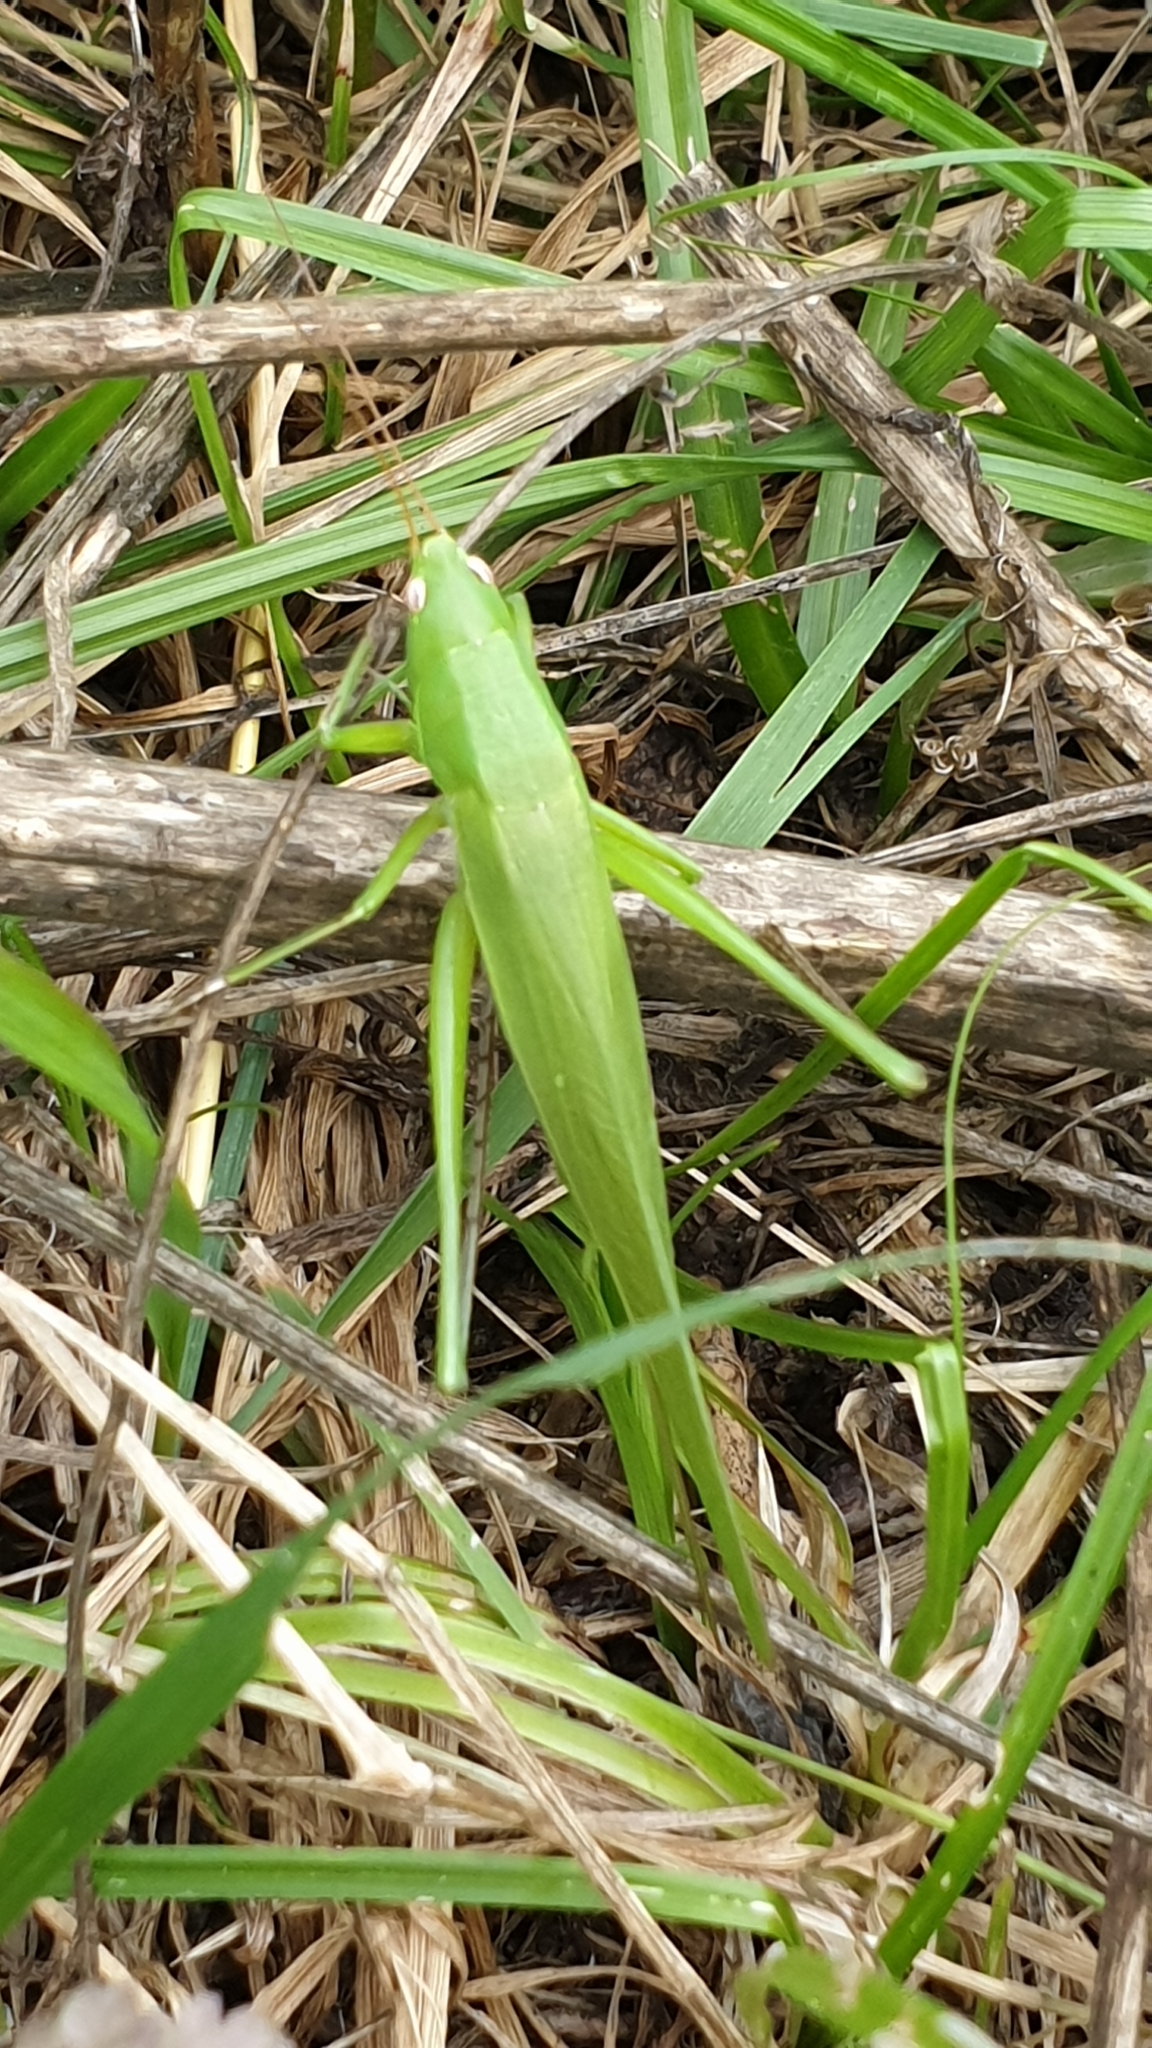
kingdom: Animalia
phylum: Arthropoda
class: Insecta
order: Orthoptera
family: Tettigoniidae
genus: Ruspolia
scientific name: Ruspolia nitidula
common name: Large conehead
